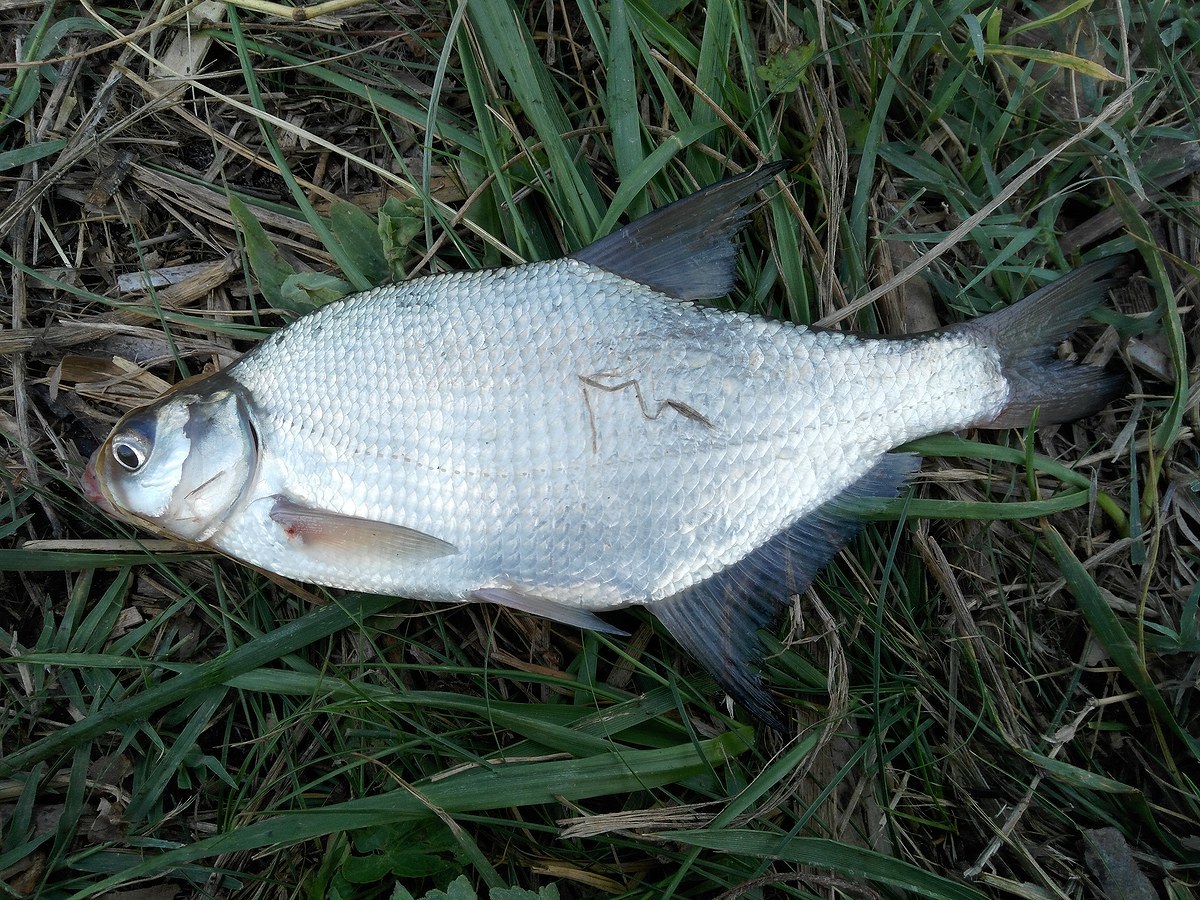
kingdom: Animalia
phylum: Chordata
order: Cypriniformes
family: Cyprinidae
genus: Abramis
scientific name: Abramis brama
